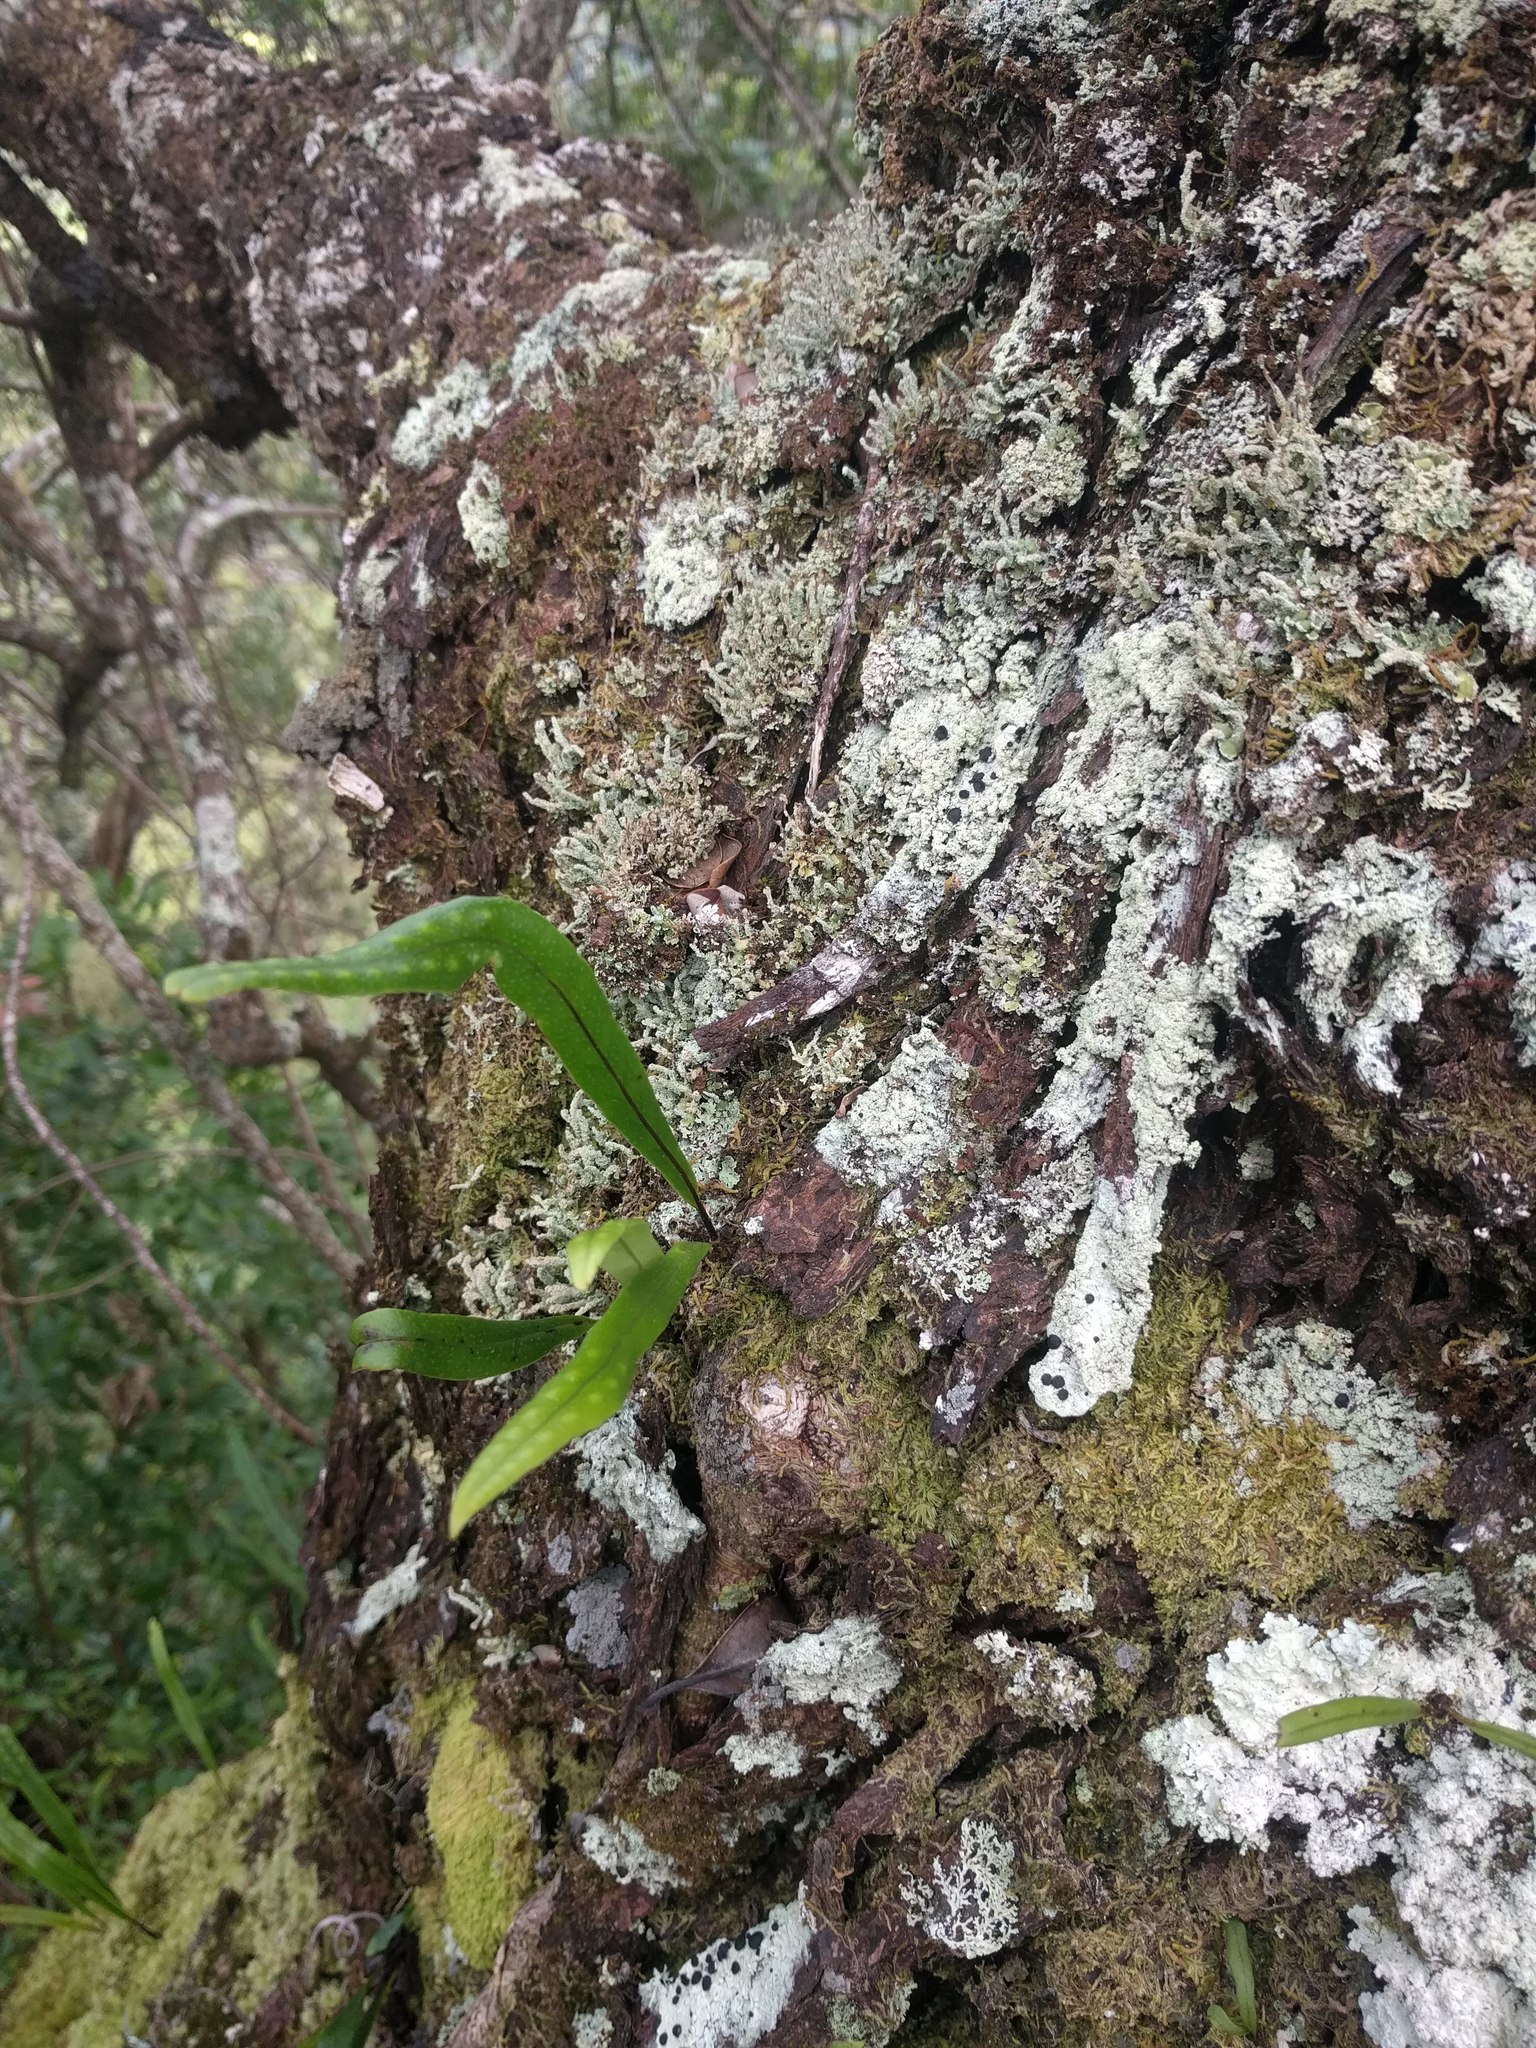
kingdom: Plantae
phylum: Tracheophyta
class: Polypodiopsida
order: Polypodiales
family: Polypodiaceae
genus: Lepisorus
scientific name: Lepisorus thunbergianus
